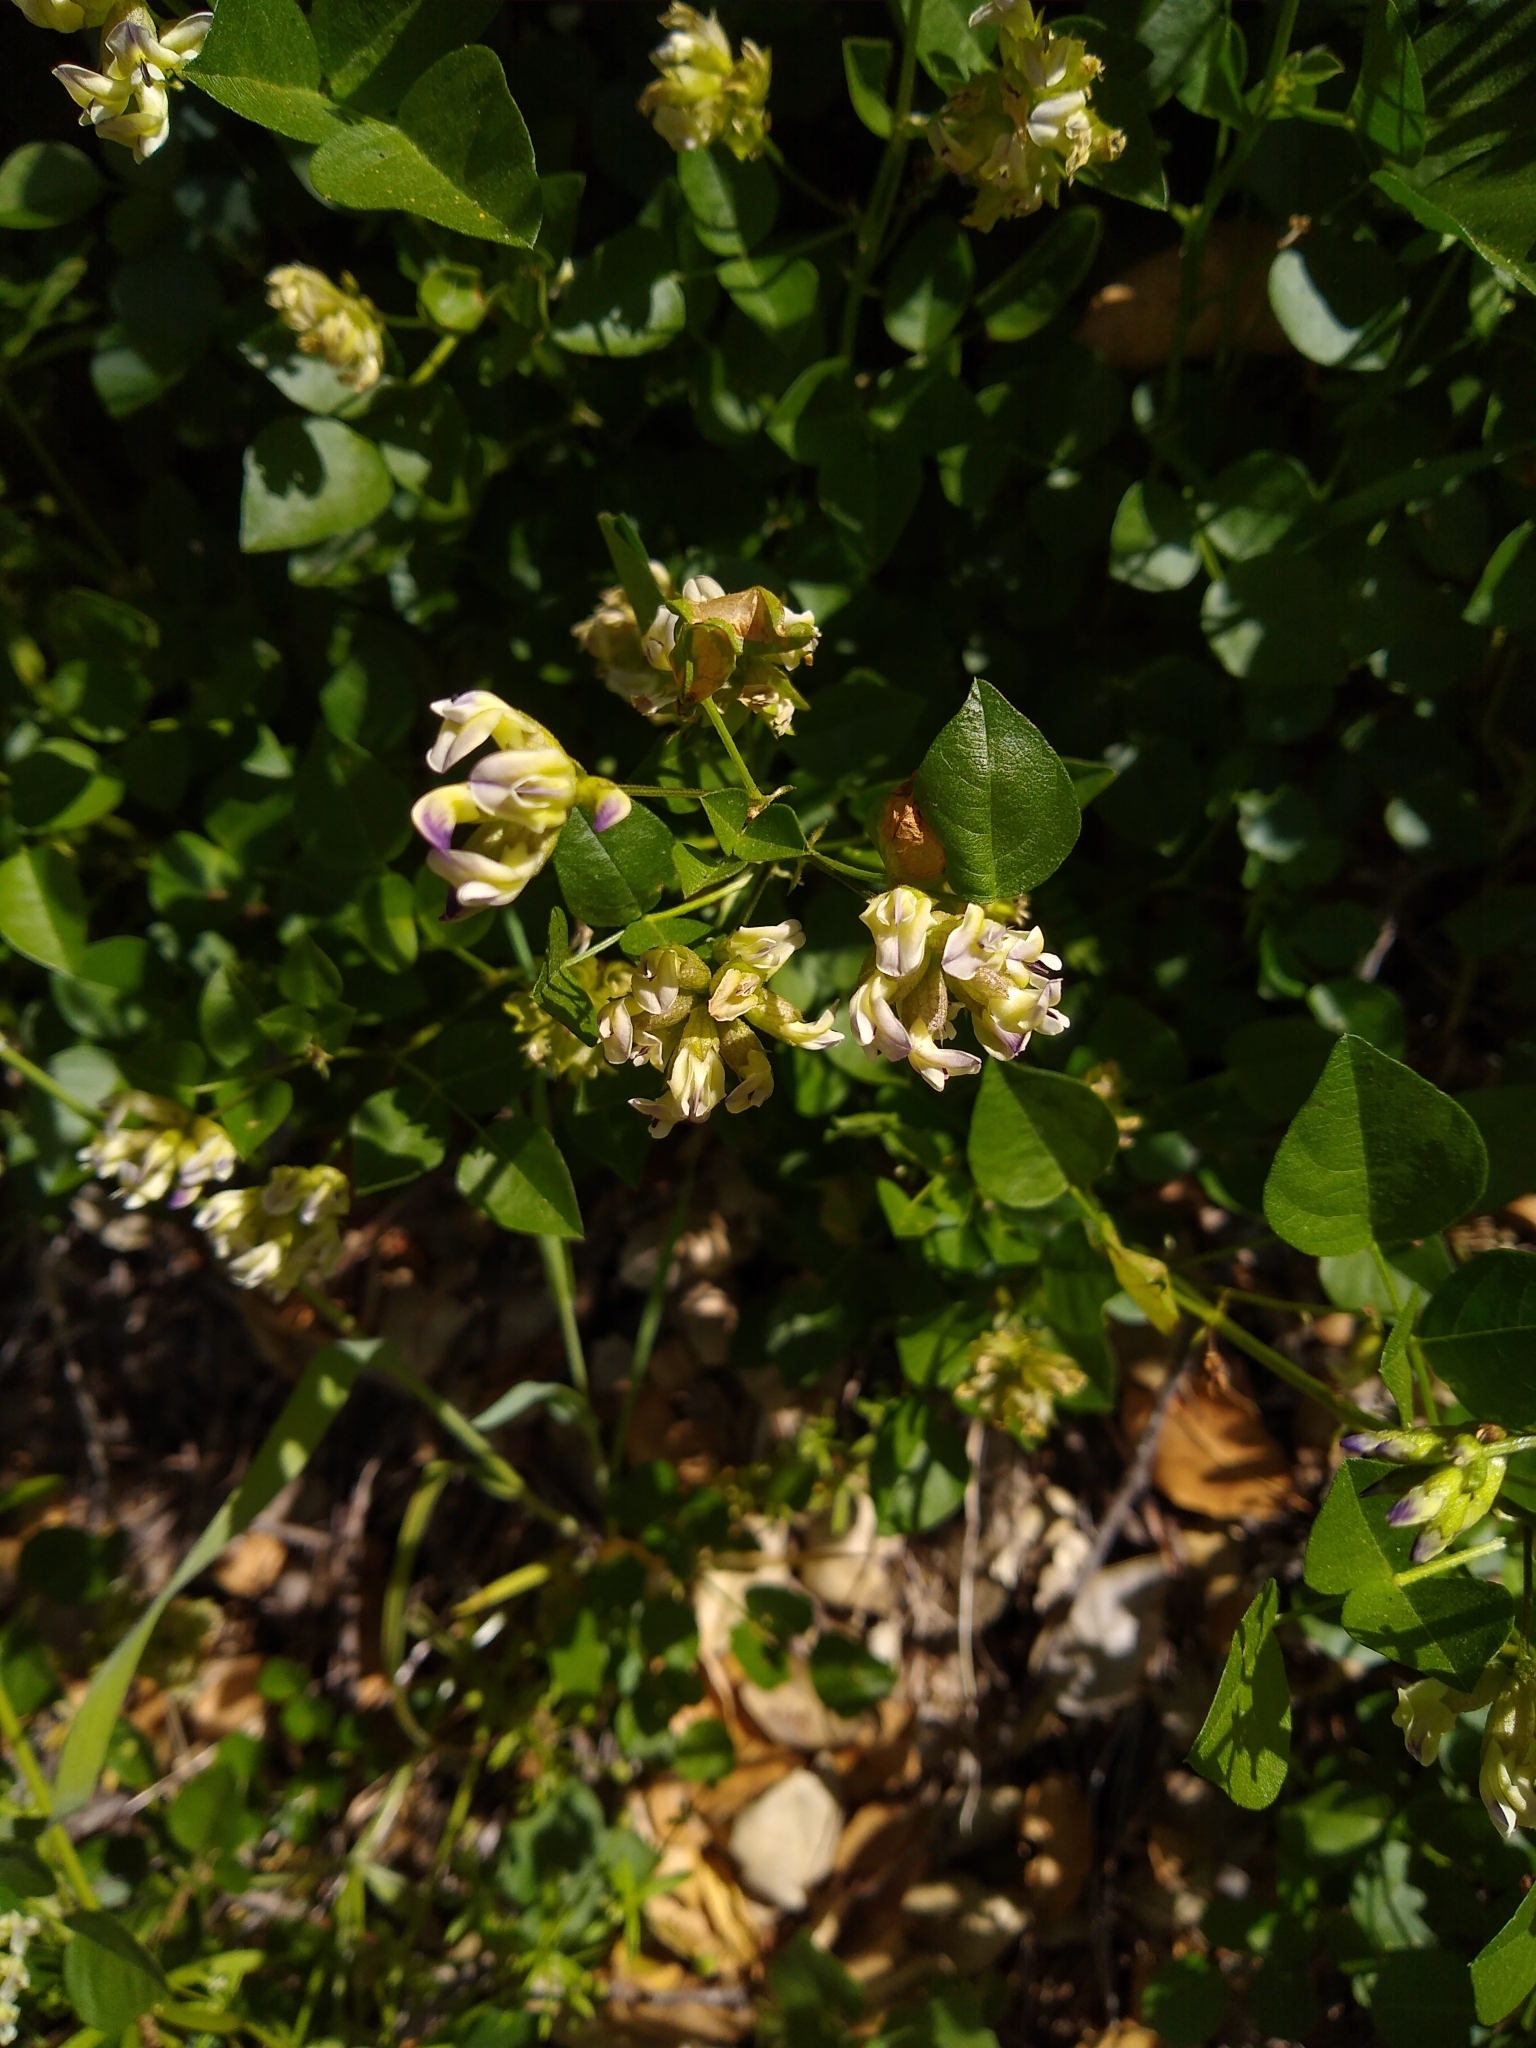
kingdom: Plantae
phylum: Tracheophyta
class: Magnoliopsida
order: Fabales
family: Fabaceae
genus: Rupertia
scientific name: Rupertia physodes
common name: California-tea
